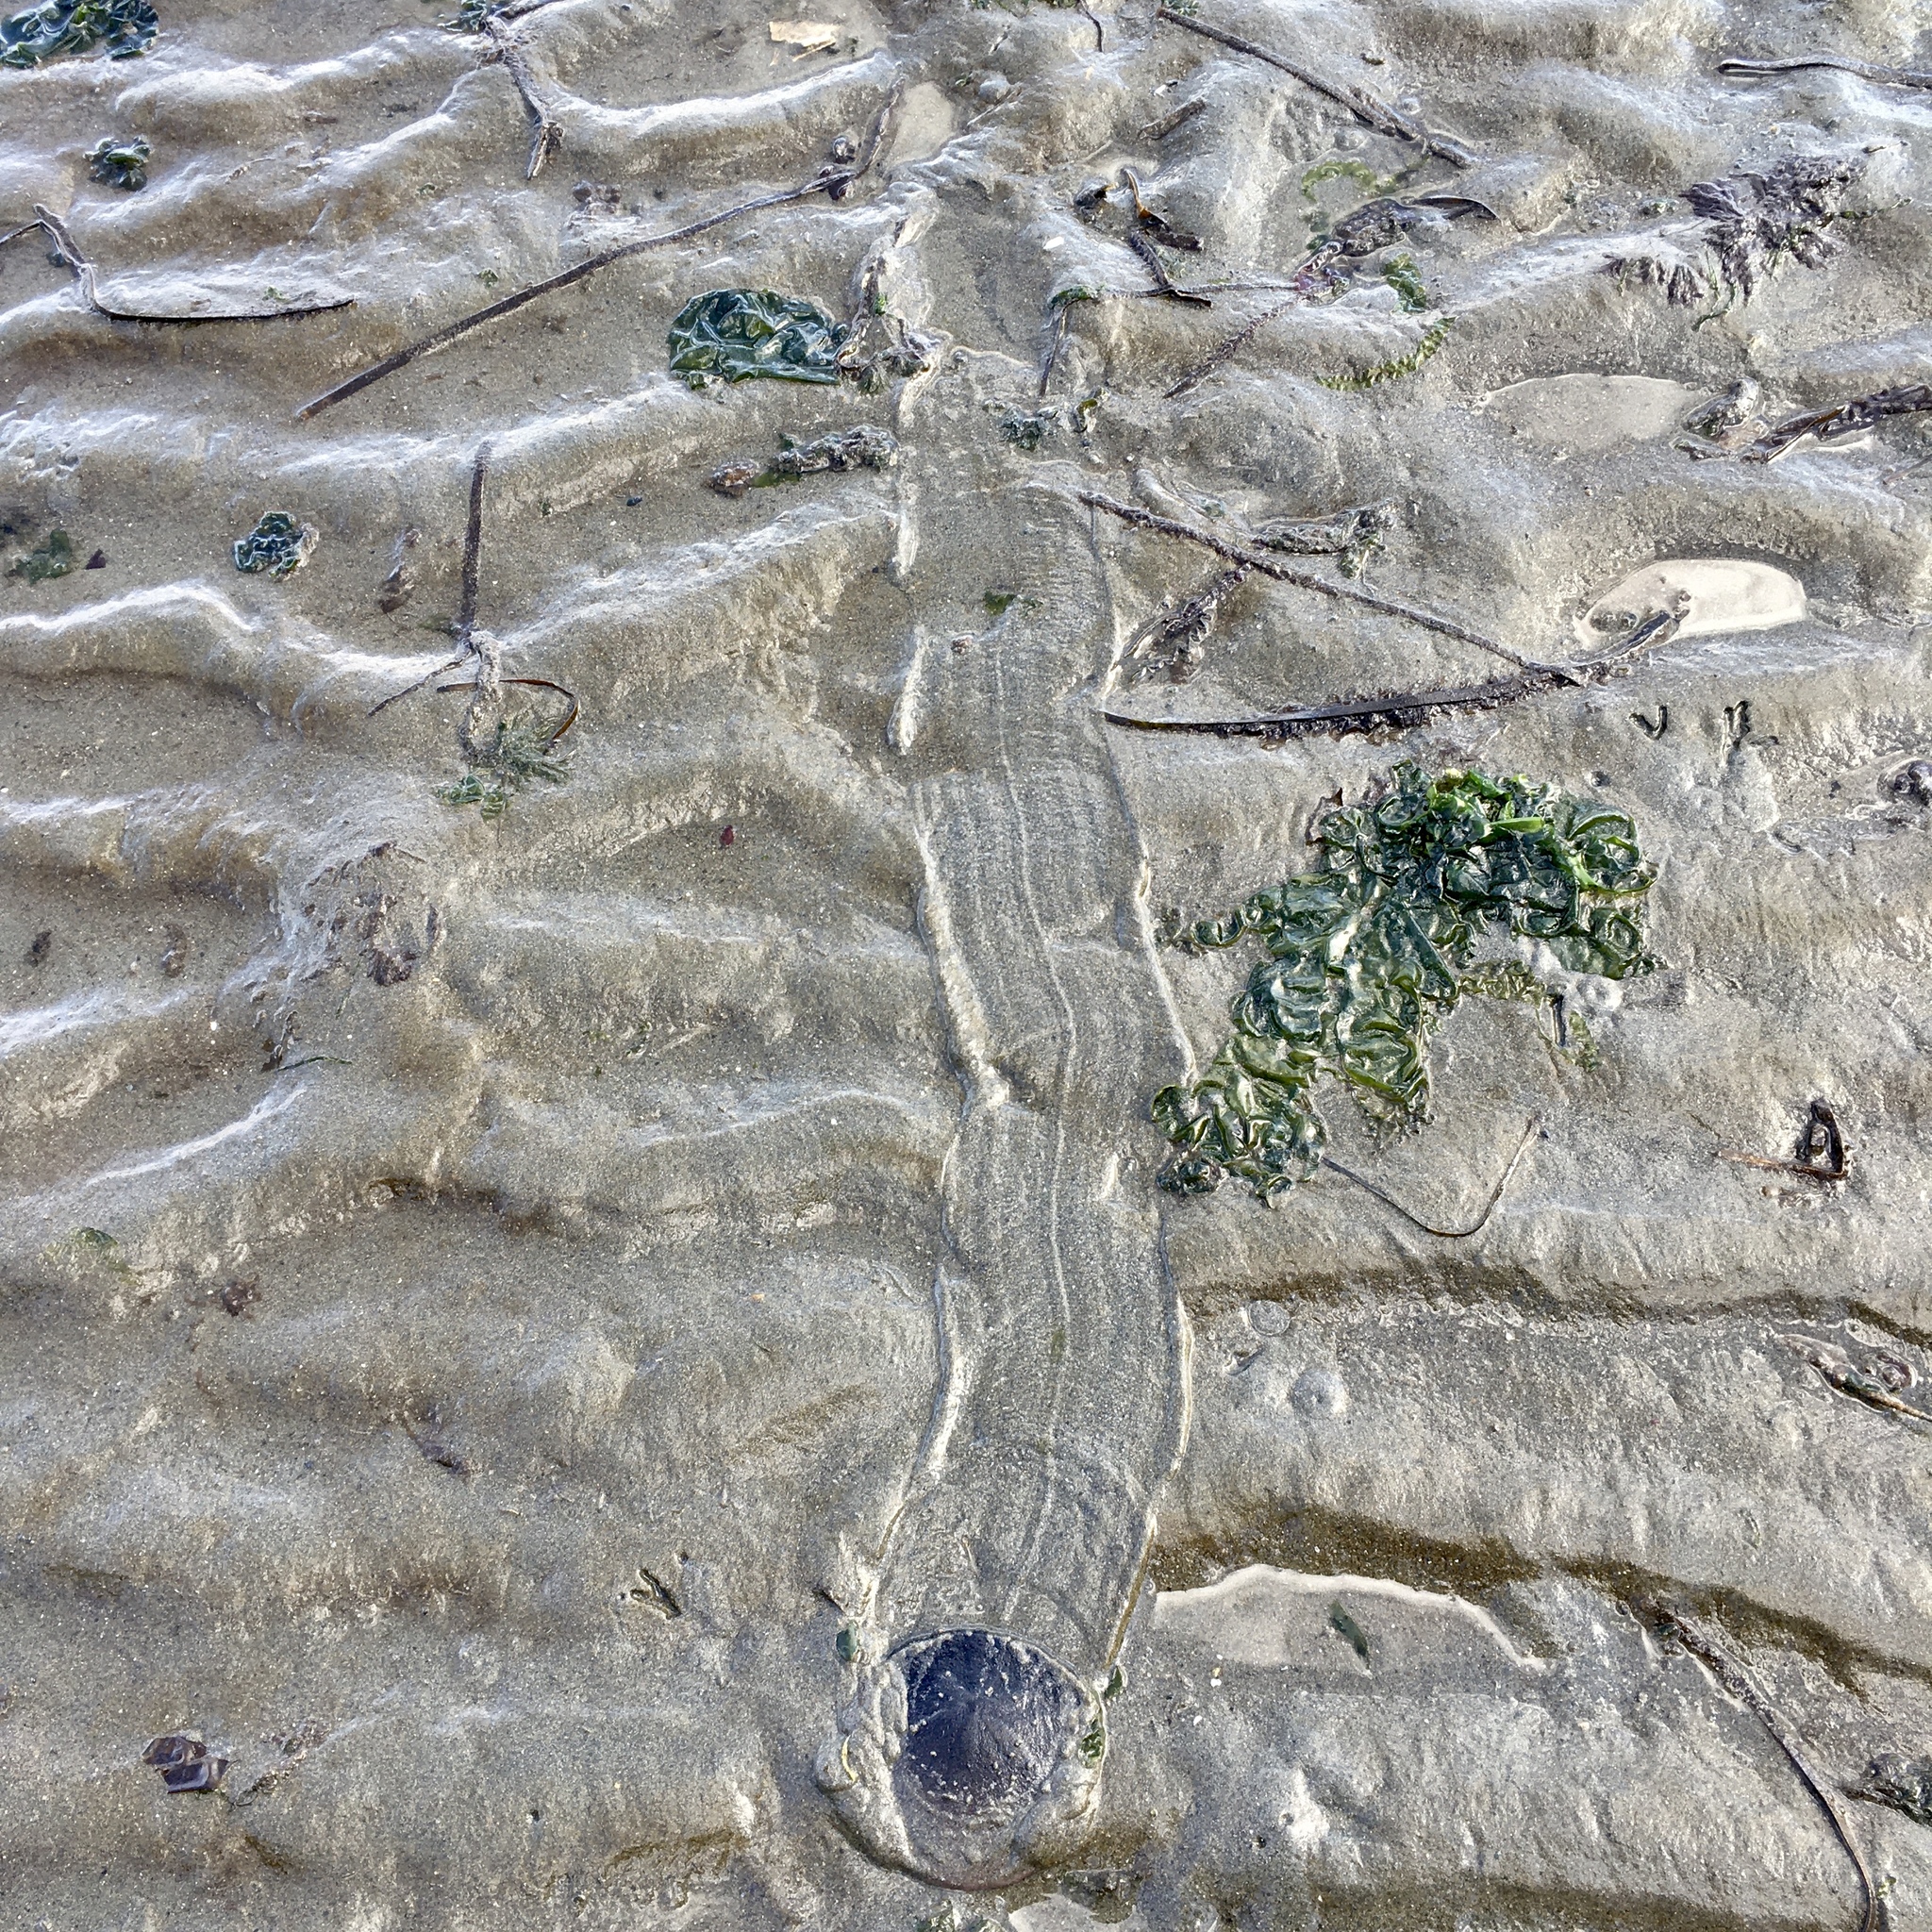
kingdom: Animalia
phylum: Echinodermata
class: Echinoidea
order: Echinolampadacea
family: Dendrasteridae
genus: Dendraster
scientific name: Dendraster excentricus
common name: Eccentric sand dollar sea urchin
